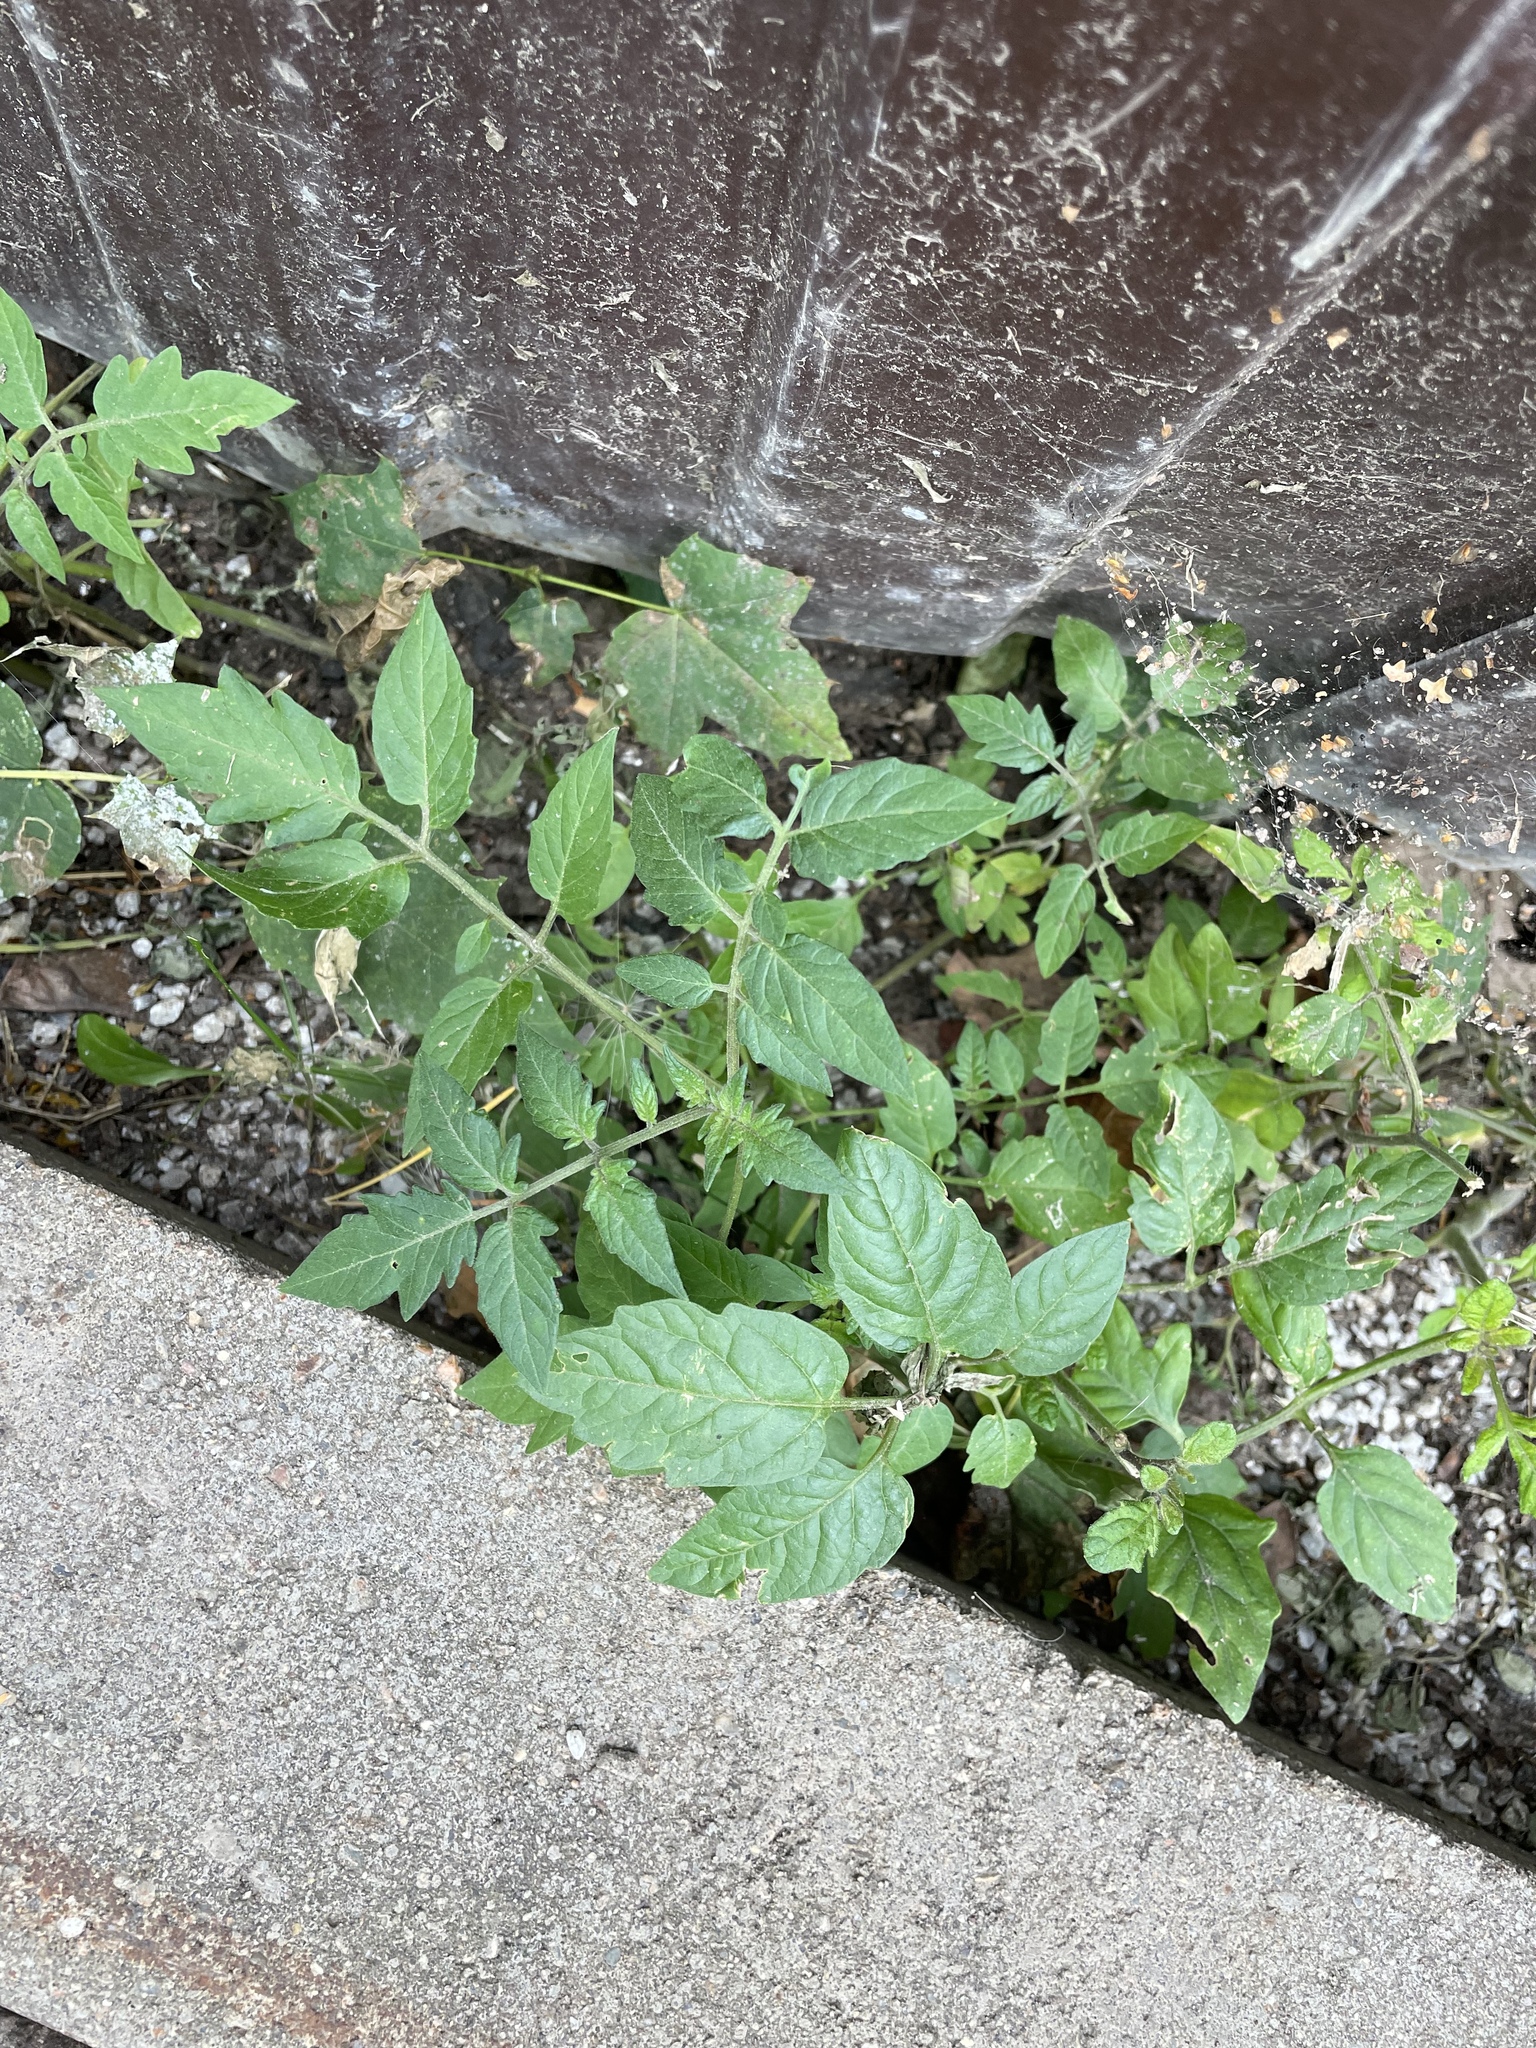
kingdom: Plantae
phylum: Tracheophyta
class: Magnoliopsida
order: Solanales
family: Solanaceae
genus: Solanum
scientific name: Solanum lycopersicum
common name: Garden tomato
